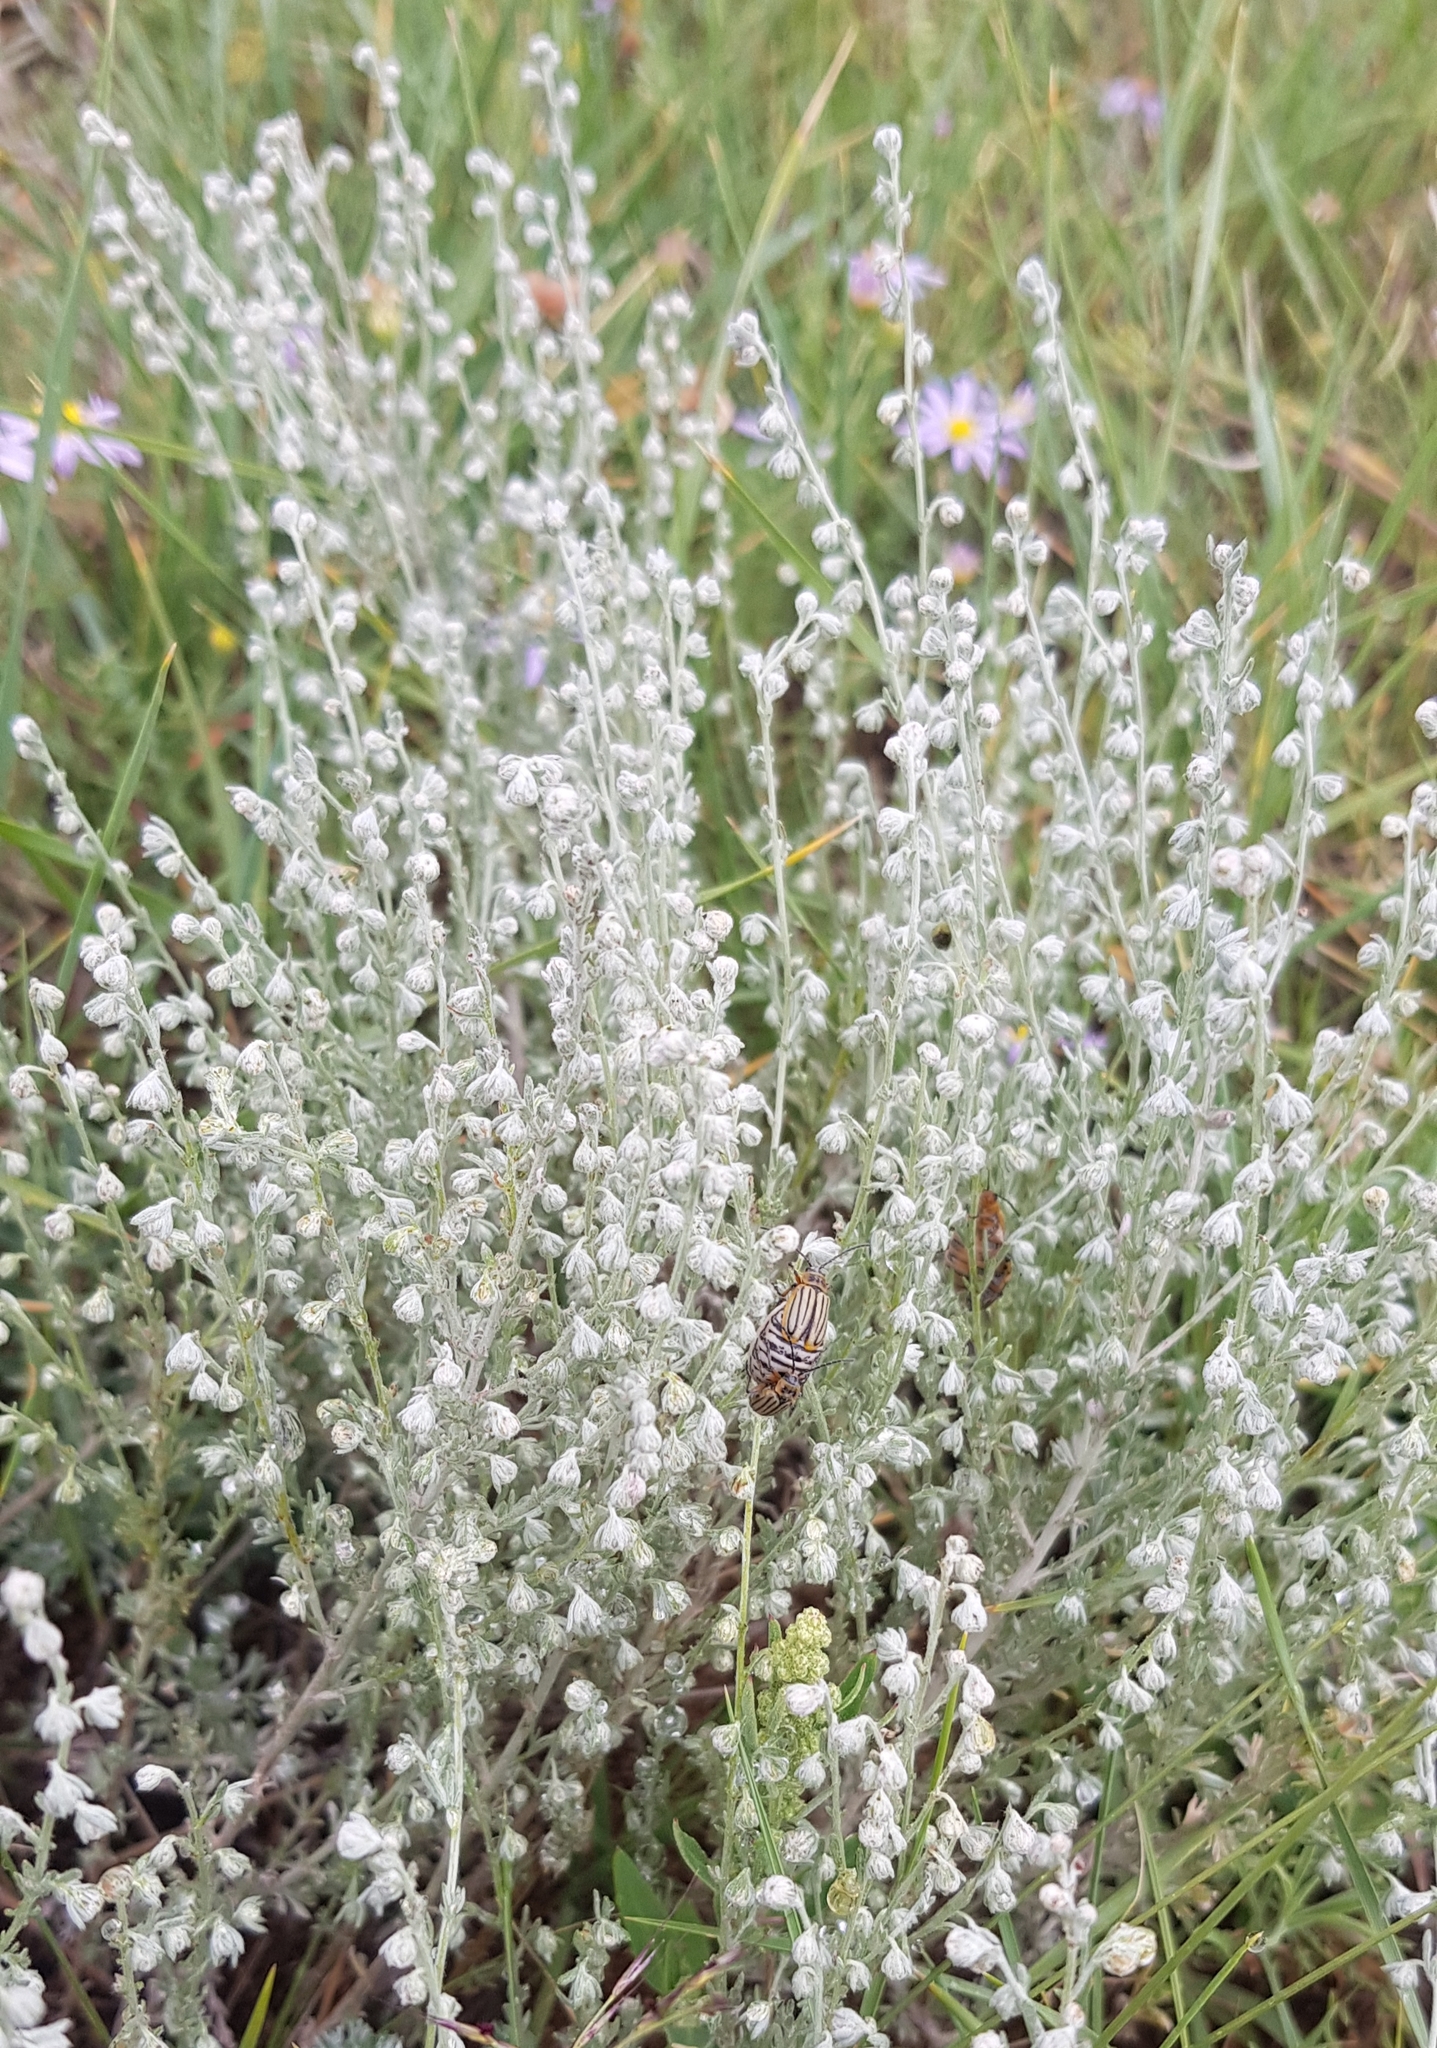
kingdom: Plantae
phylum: Tracheophyta
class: Magnoliopsida
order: Asterales
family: Asteraceae
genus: Artemisia
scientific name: Artemisia frigida
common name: Prairie sagewort
